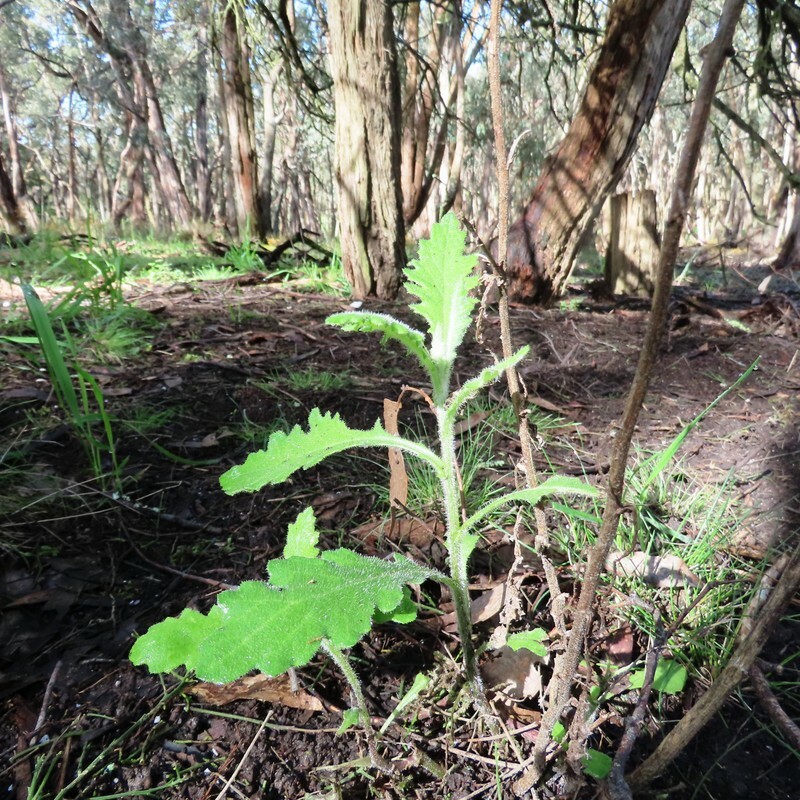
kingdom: Plantae
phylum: Tracheophyta
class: Magnoliopsida
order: Asterales
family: Asteraceae
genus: Senecio
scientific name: Senecio glomeratus
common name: Cutleaf burnweed
